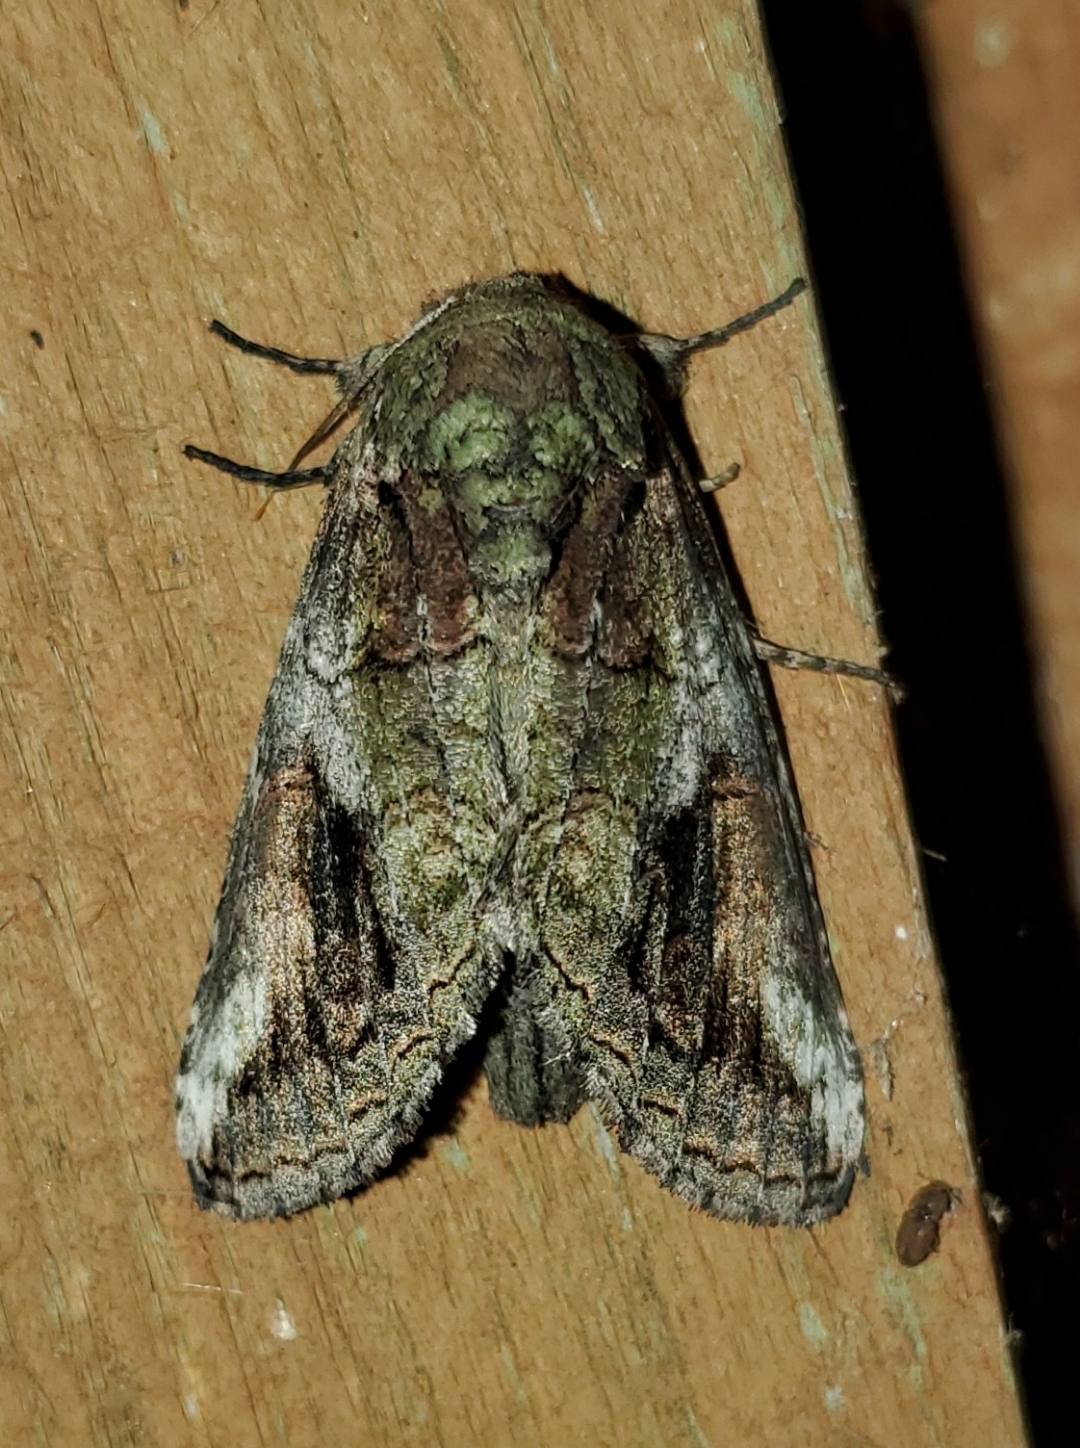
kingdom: Animalia
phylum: Arthropoda
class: Insecta
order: Lepidoptera
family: Notodontidae
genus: Heterocampa
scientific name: Heterocampa obliqua
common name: Oblique heterocampa
